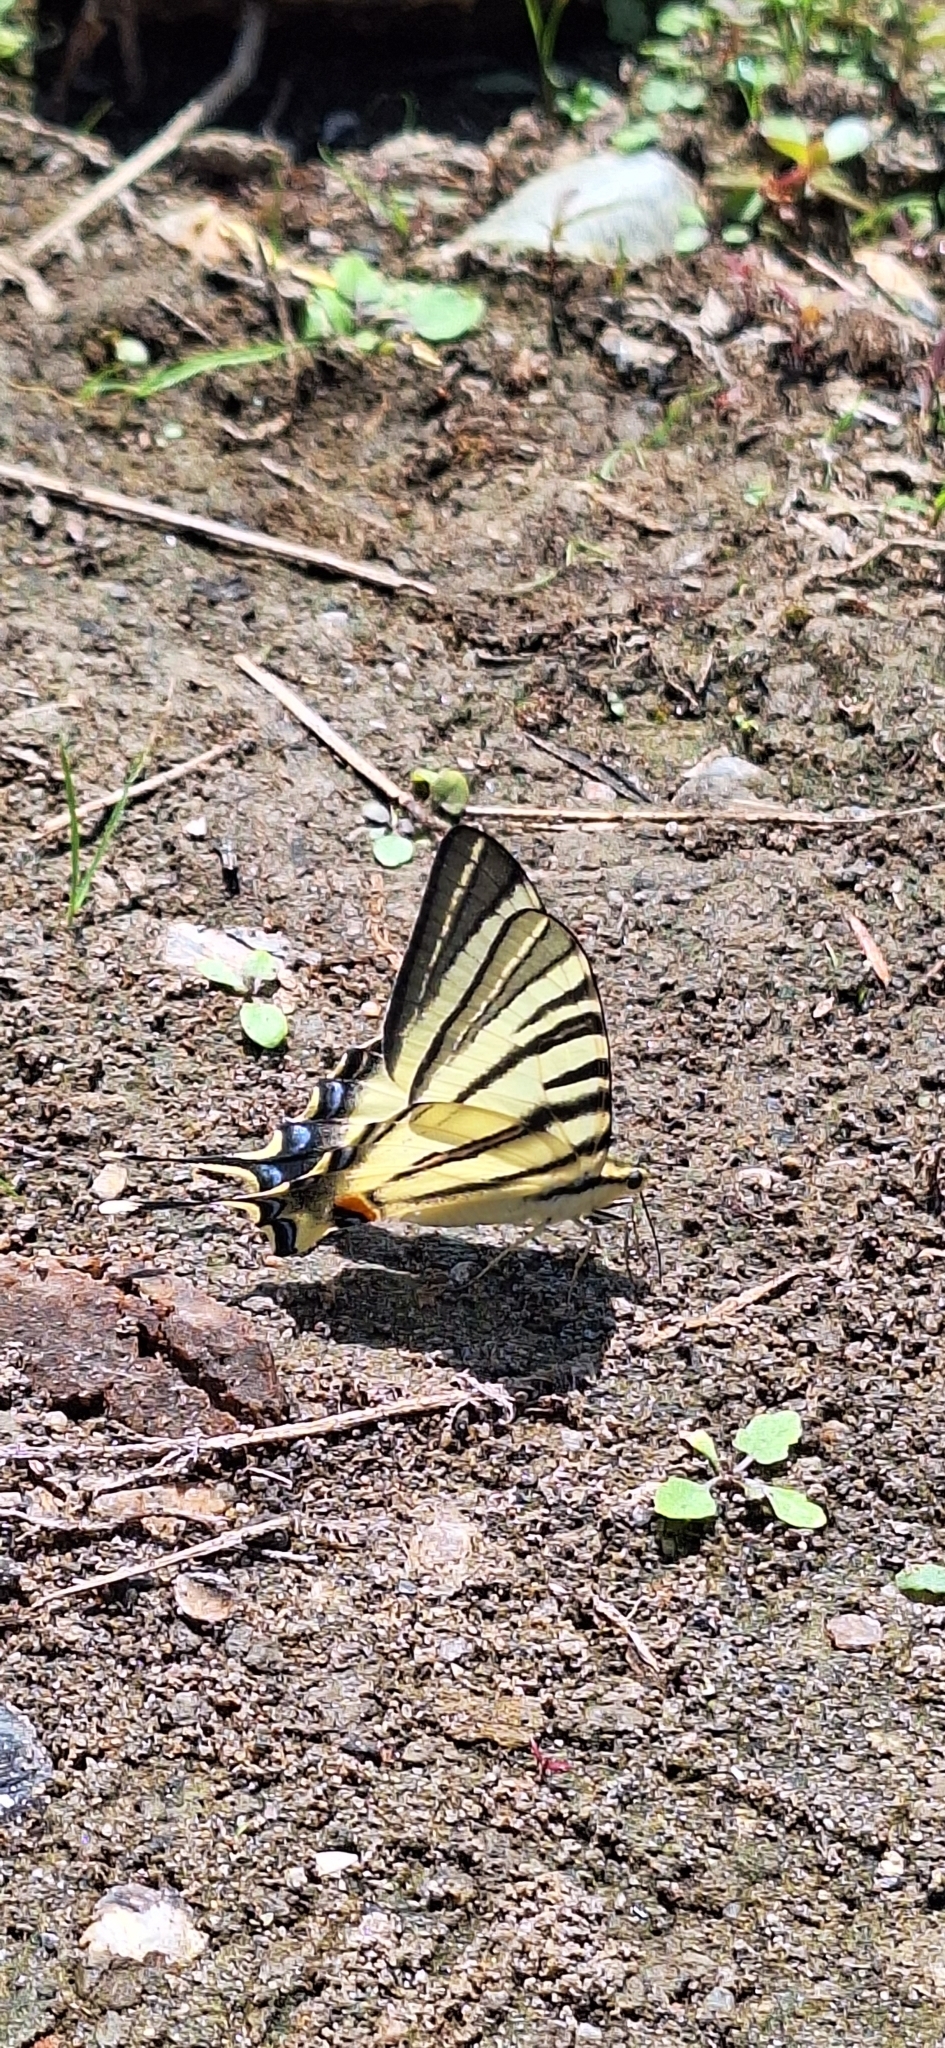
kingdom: Animalia
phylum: Arthropoda
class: Insecta
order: Lepidoptera
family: Papilionidae
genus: Iphiclides
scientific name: Iphiclides podalirius
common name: Scarce swallowtail
